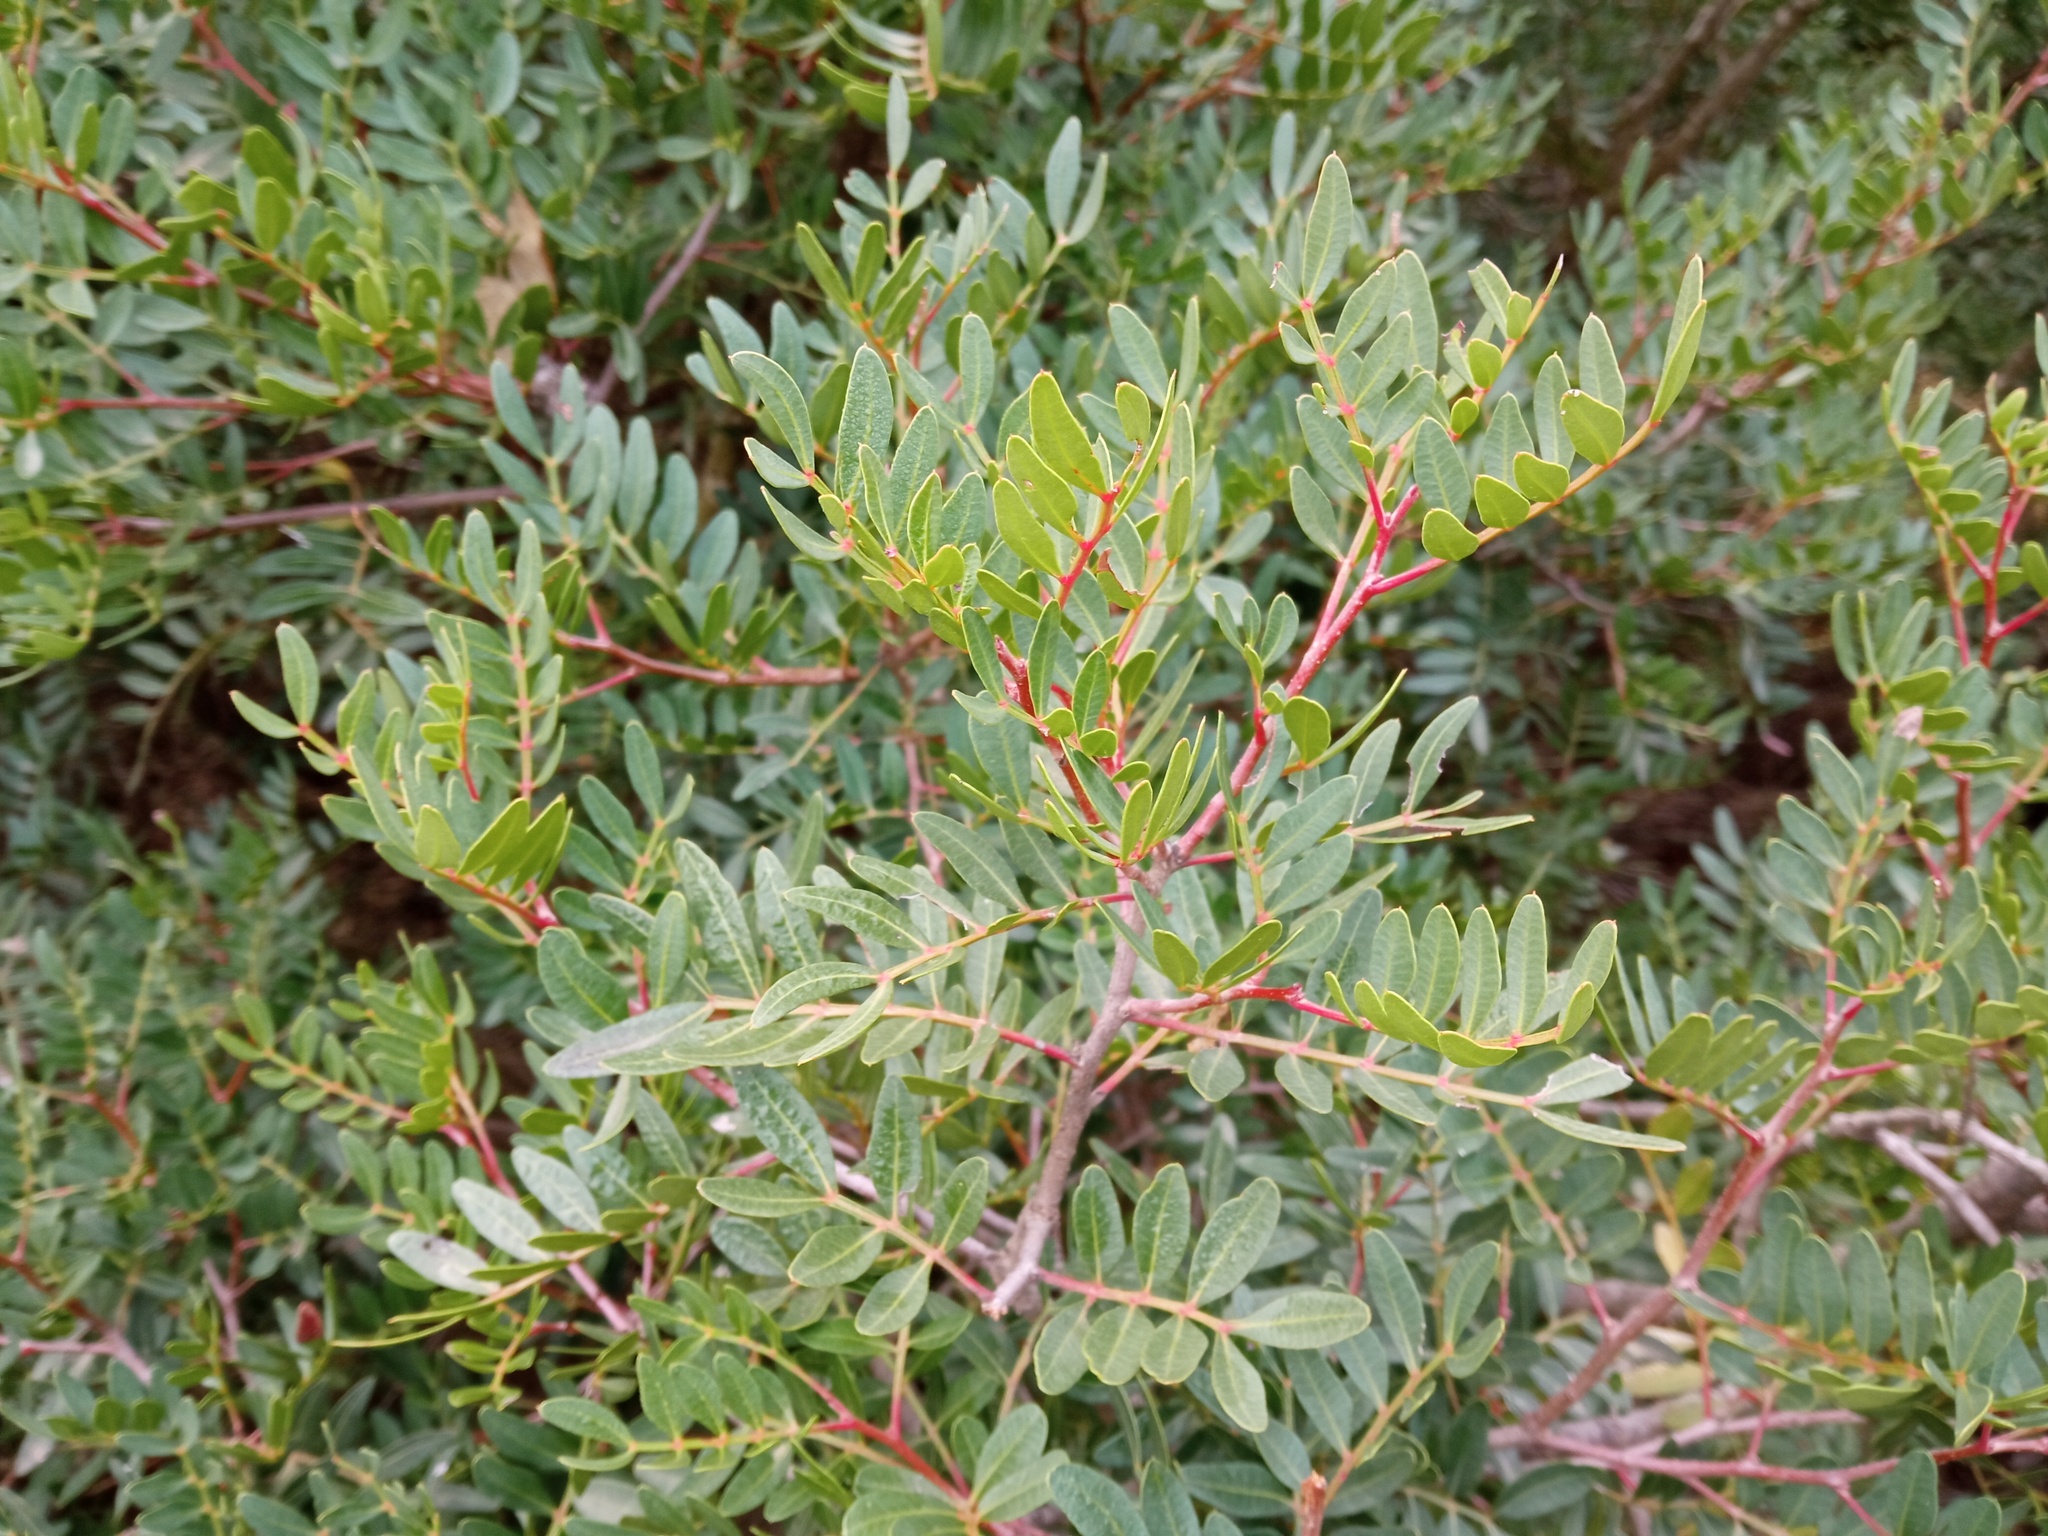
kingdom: Plantae
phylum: Tracheophyta
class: Magnoliopsida
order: Sapindales
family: Anacardiaceae
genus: Pistacia
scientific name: Pistacia lentiscus
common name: Lentisk
